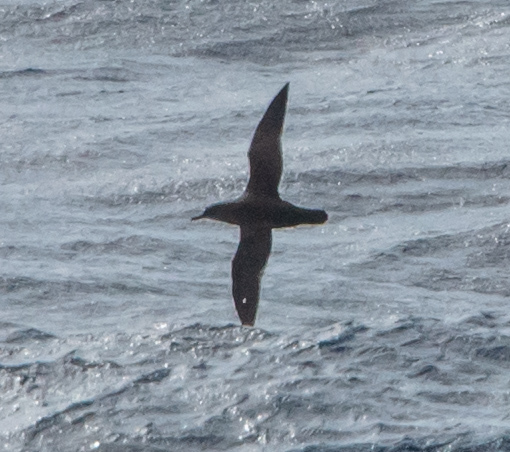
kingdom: Animalia
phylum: Chordata
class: Aves
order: Procellariiformes
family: Procellariidae
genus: Puffinus
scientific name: Puffinus mauretanicus
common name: Balearic shearwater
